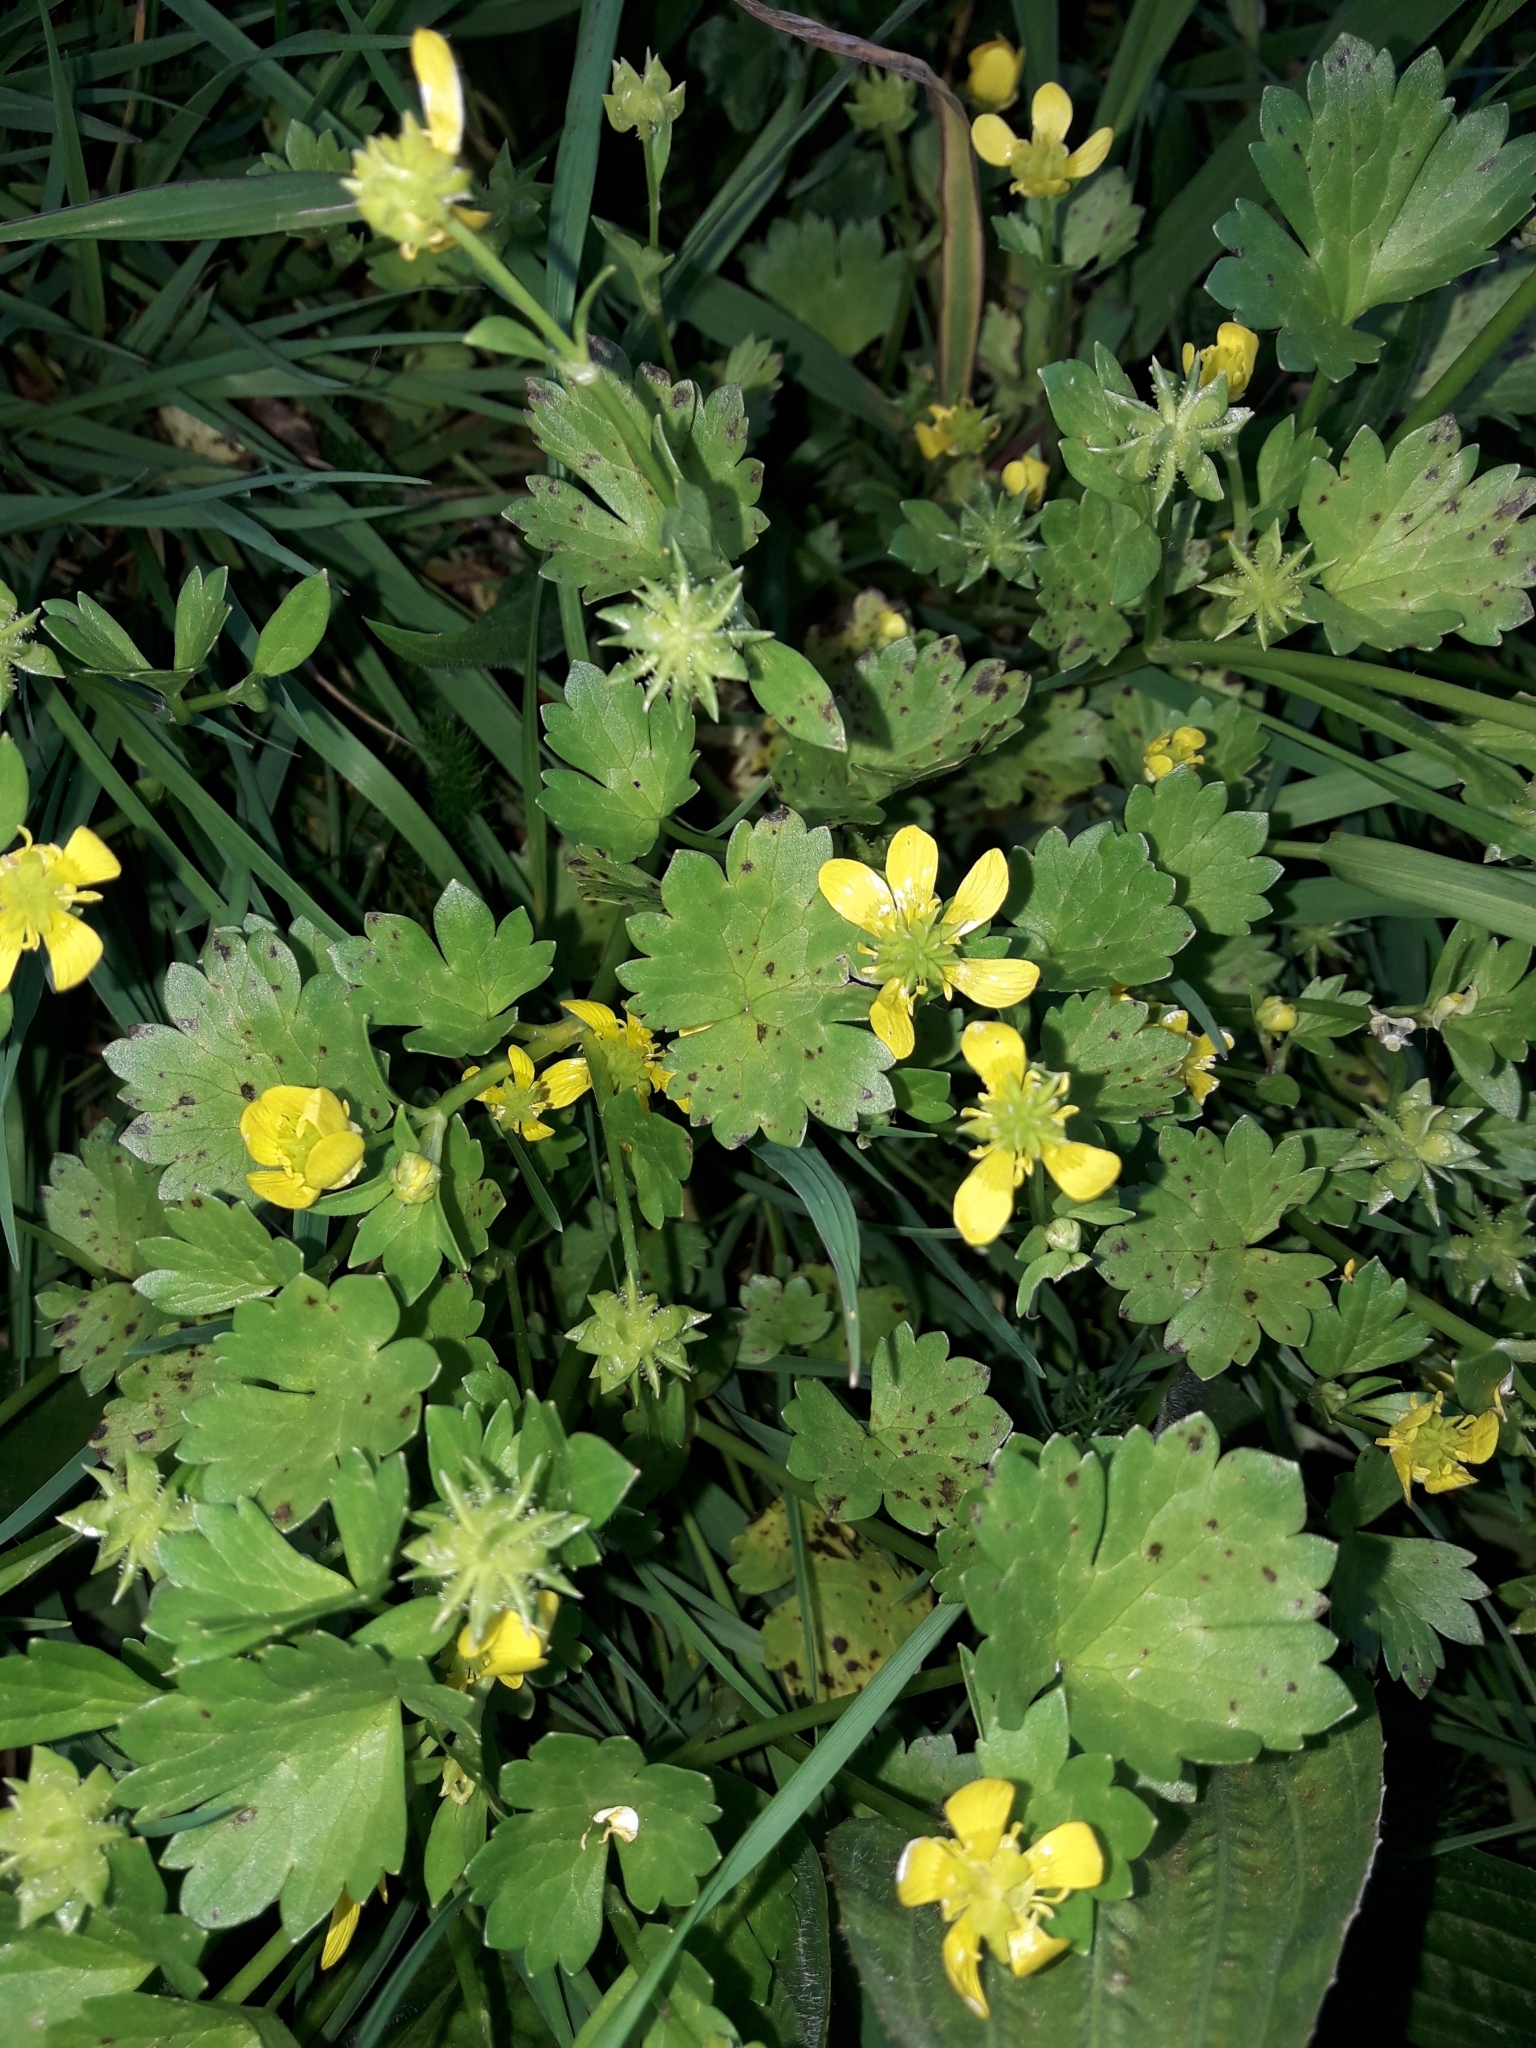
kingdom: Plantae
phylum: Tracheophyta
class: Magnoliopsida
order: Ranunculales
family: Ranunculaceae
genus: Ranunculus
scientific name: Ranunculus muricatus
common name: Rough-fruited buttercup
